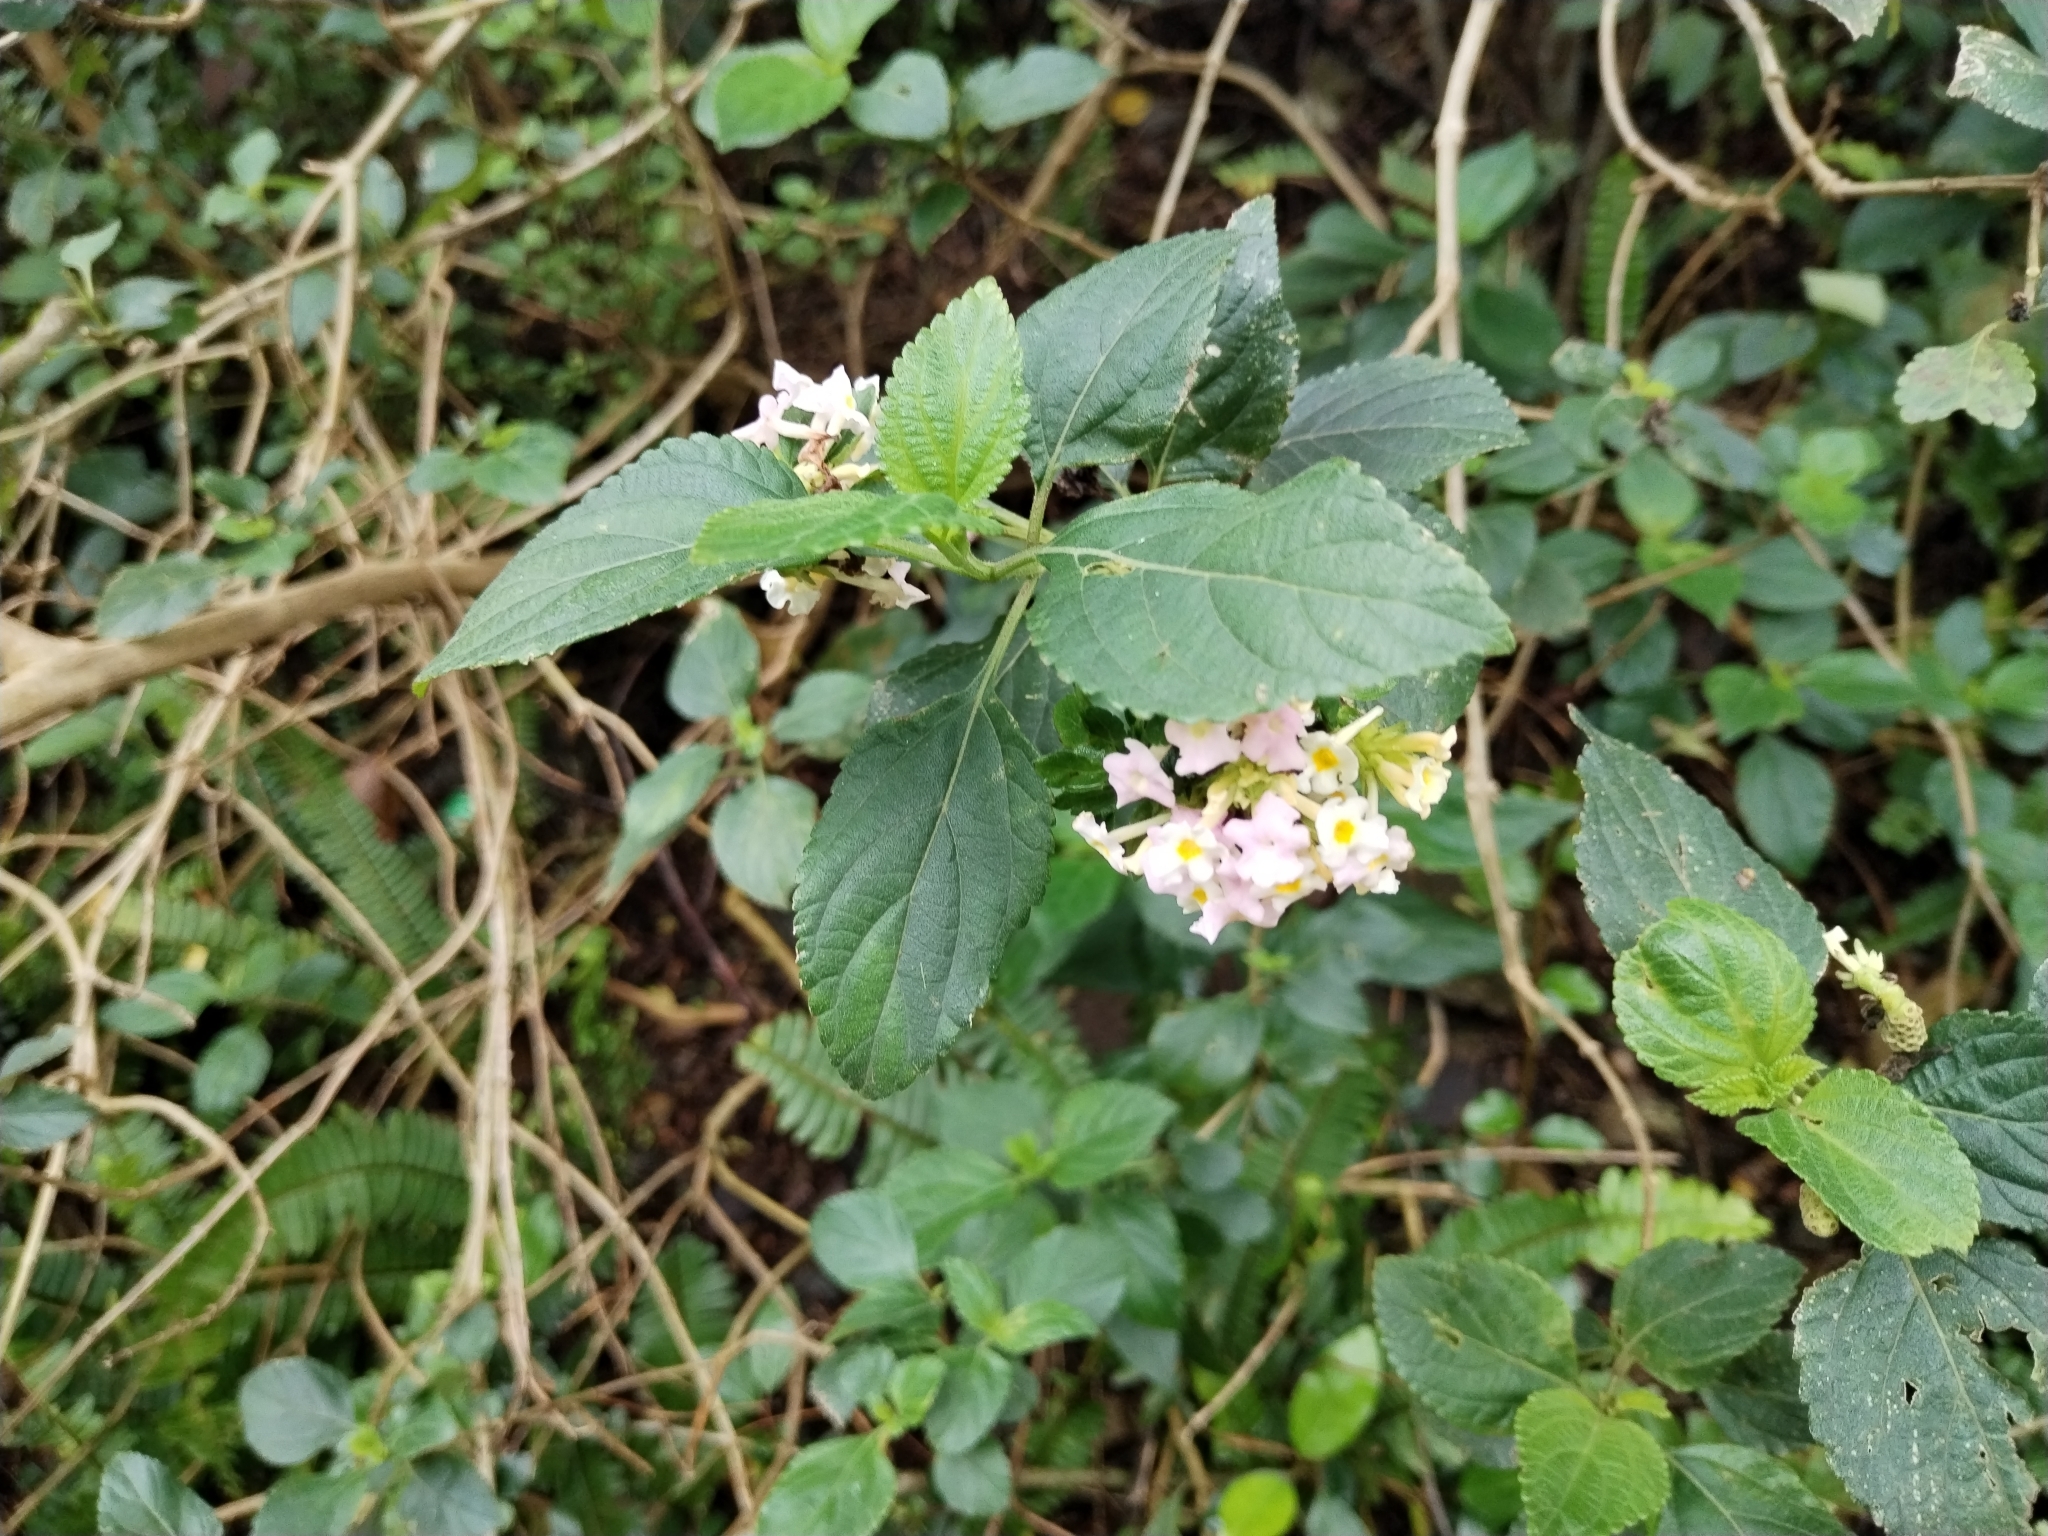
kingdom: Plantae
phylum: Tracheophyta
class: Magnoliopsida
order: Lamiales
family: Verbenaceae
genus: Lantana
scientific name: Lantana camara
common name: Lantana
